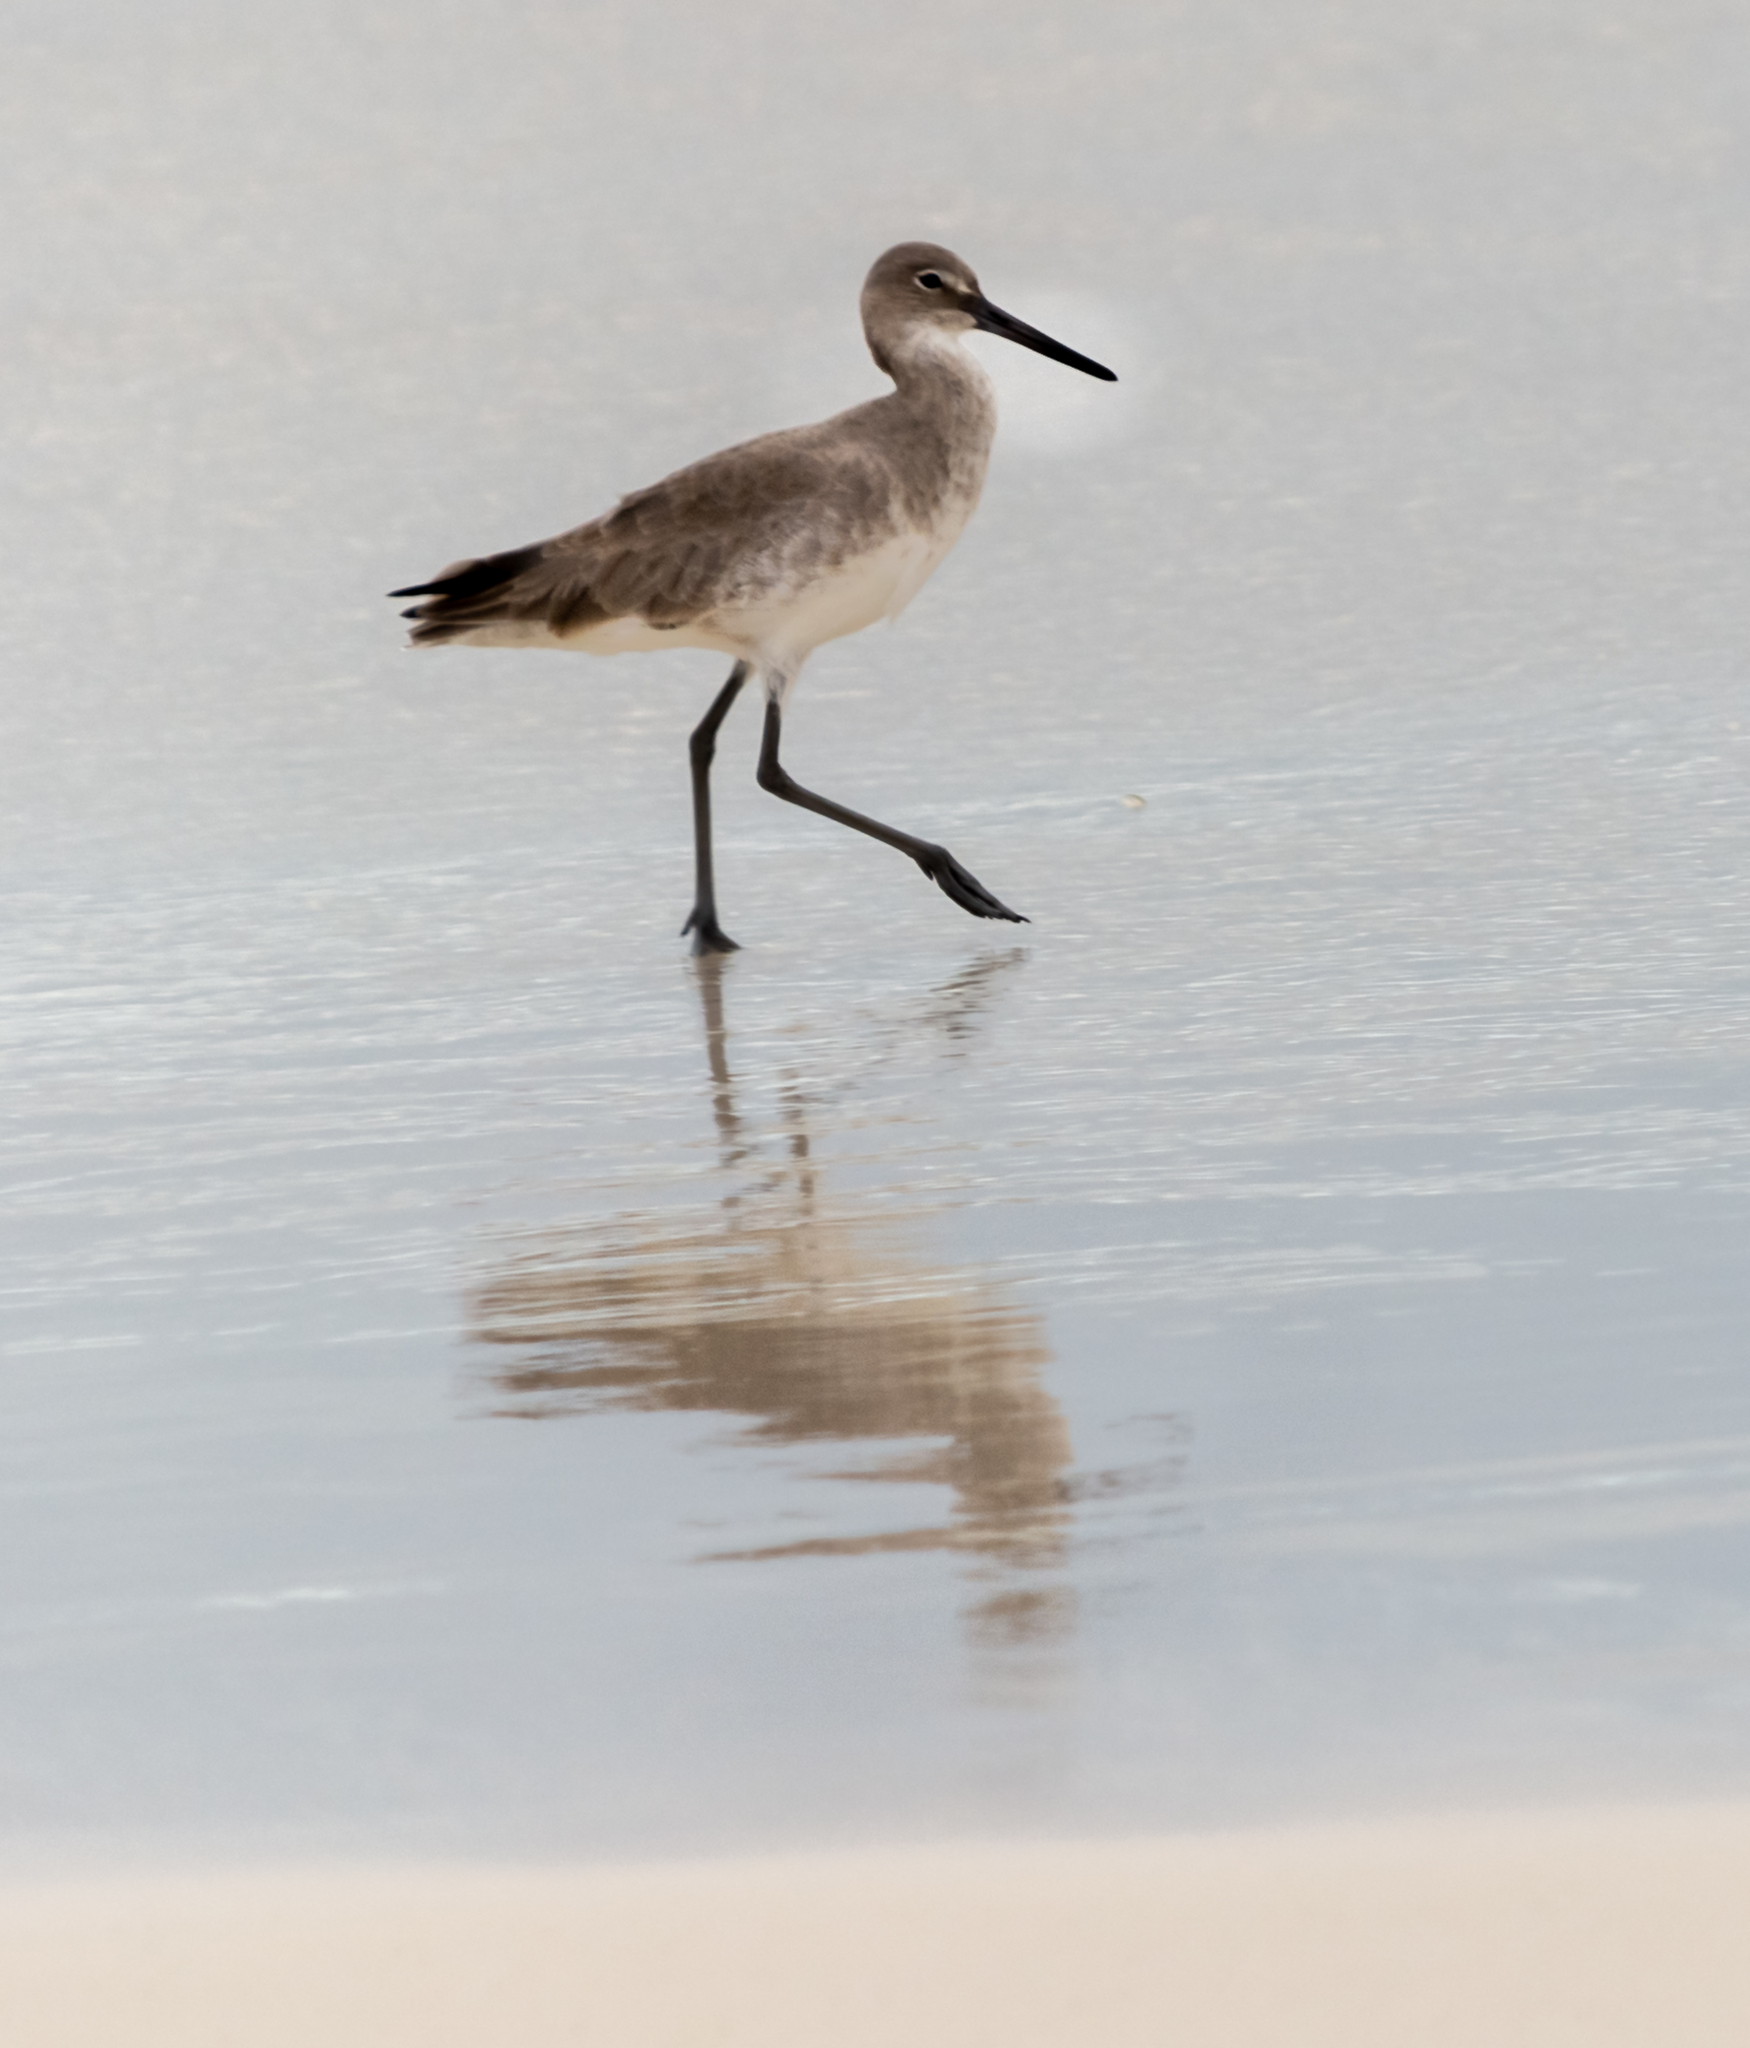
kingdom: Animalia
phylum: Chordata
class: Aves
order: Charadriiformes
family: Scolopacidae
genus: Tringa
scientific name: Tringa semipalmata
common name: Willet
